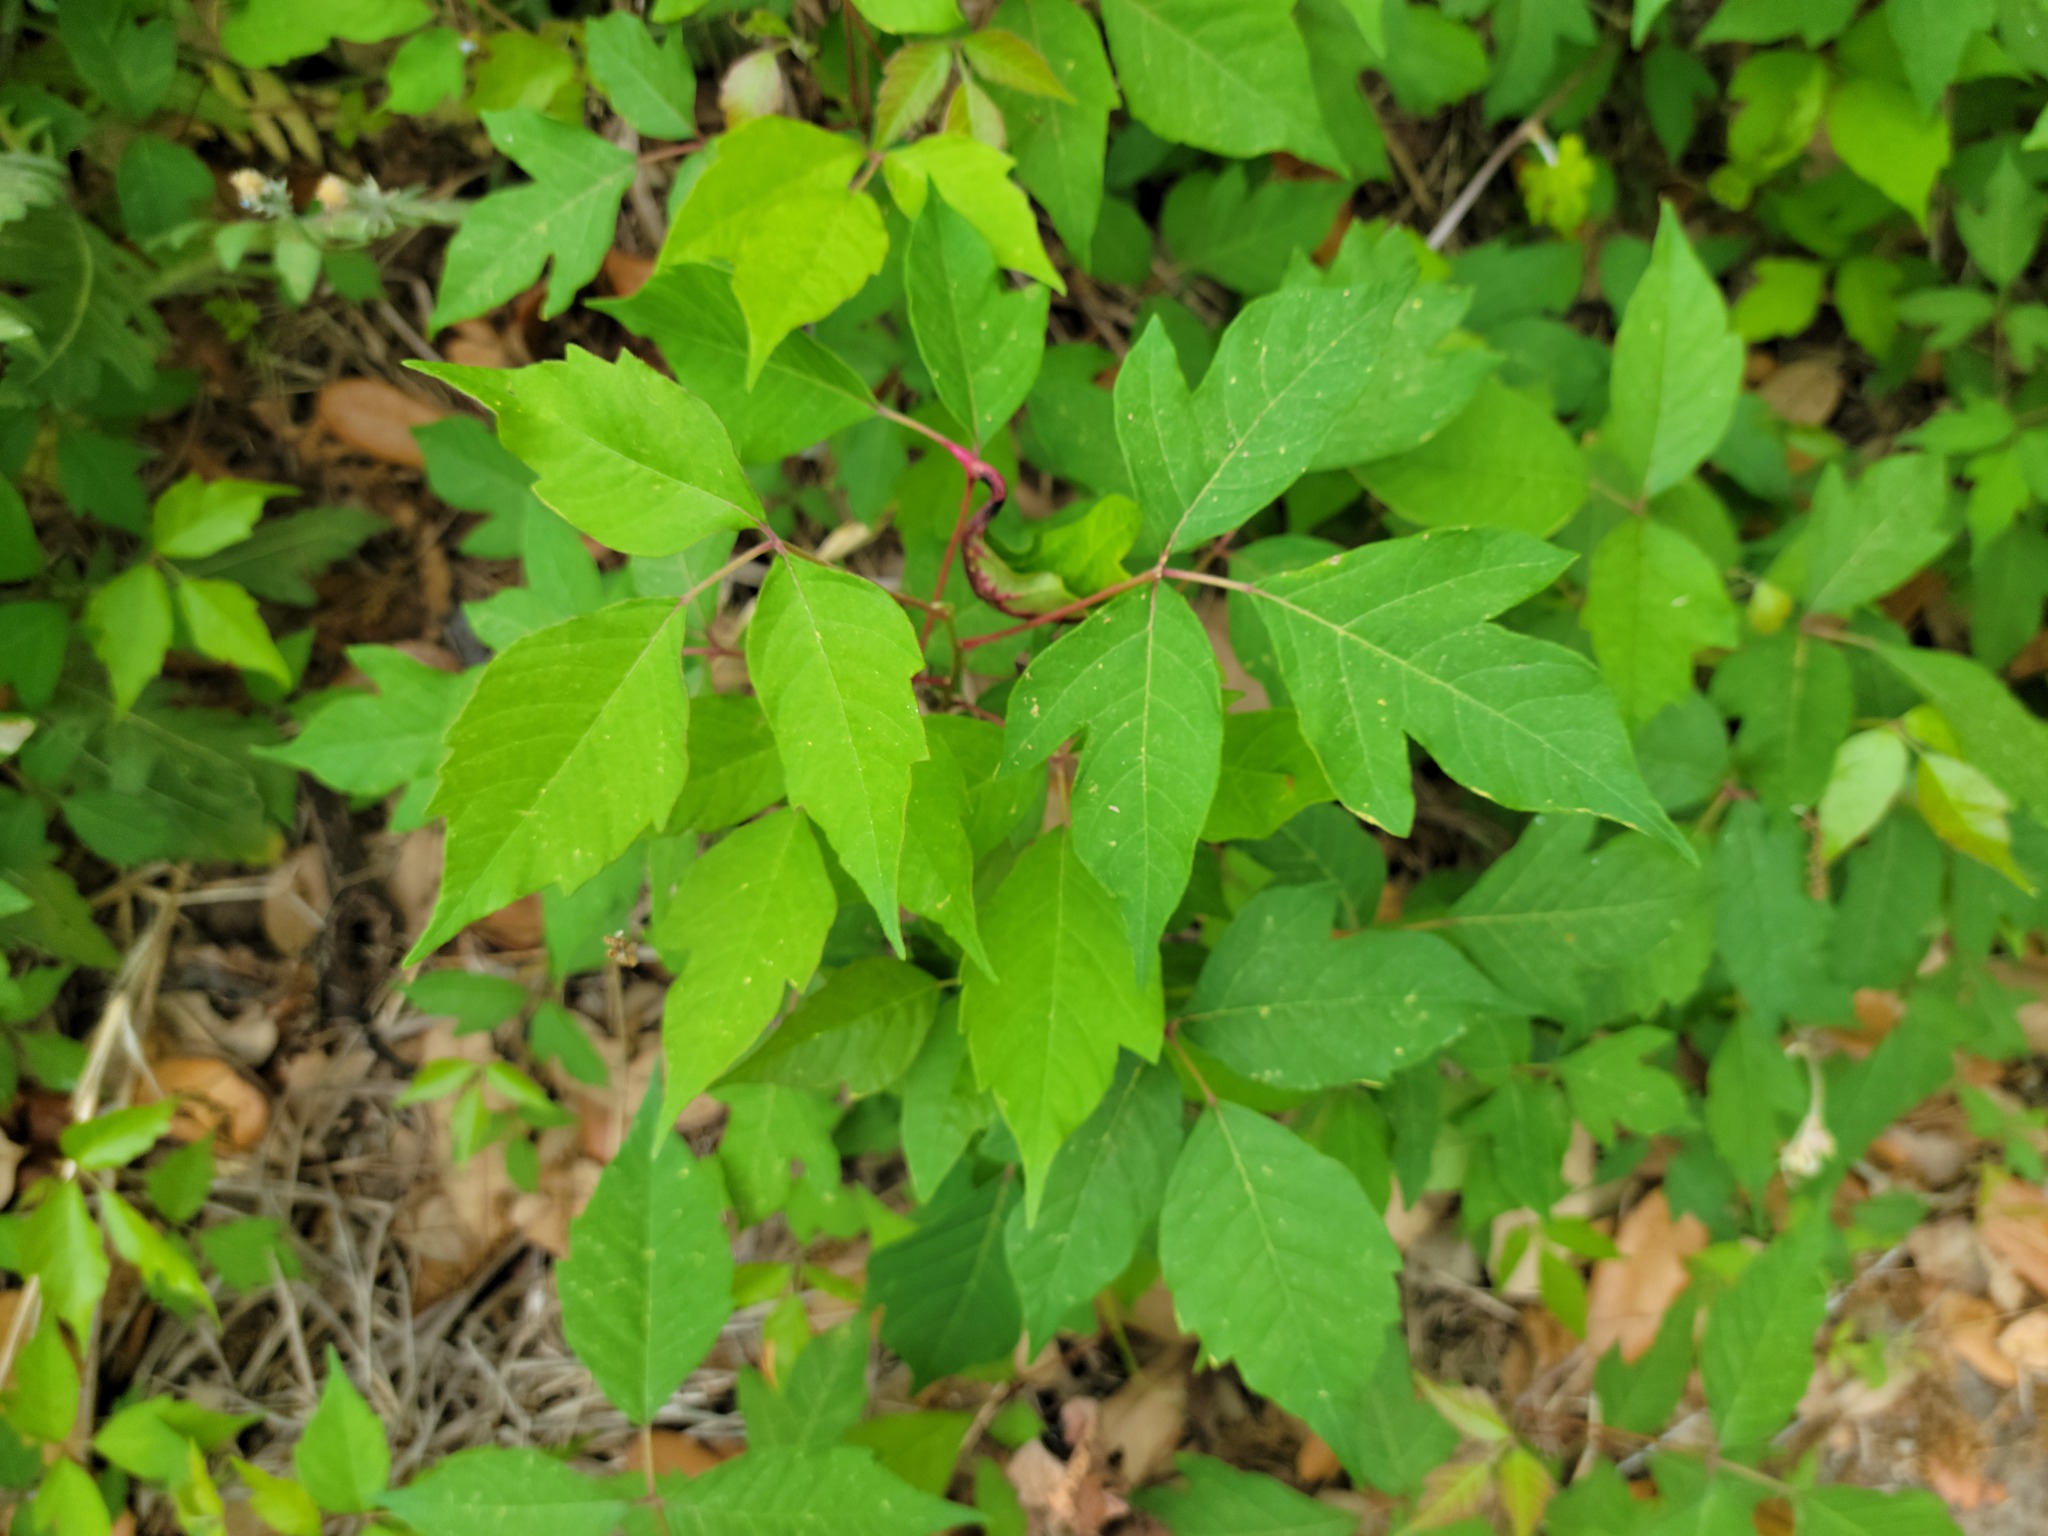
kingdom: Plantae
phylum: Tracheophyta
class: Magnoliopsida
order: Sapindales
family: Anacardiaceae
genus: Toxicodendron
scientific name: Toxicodendron radicans
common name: Poison ivy
